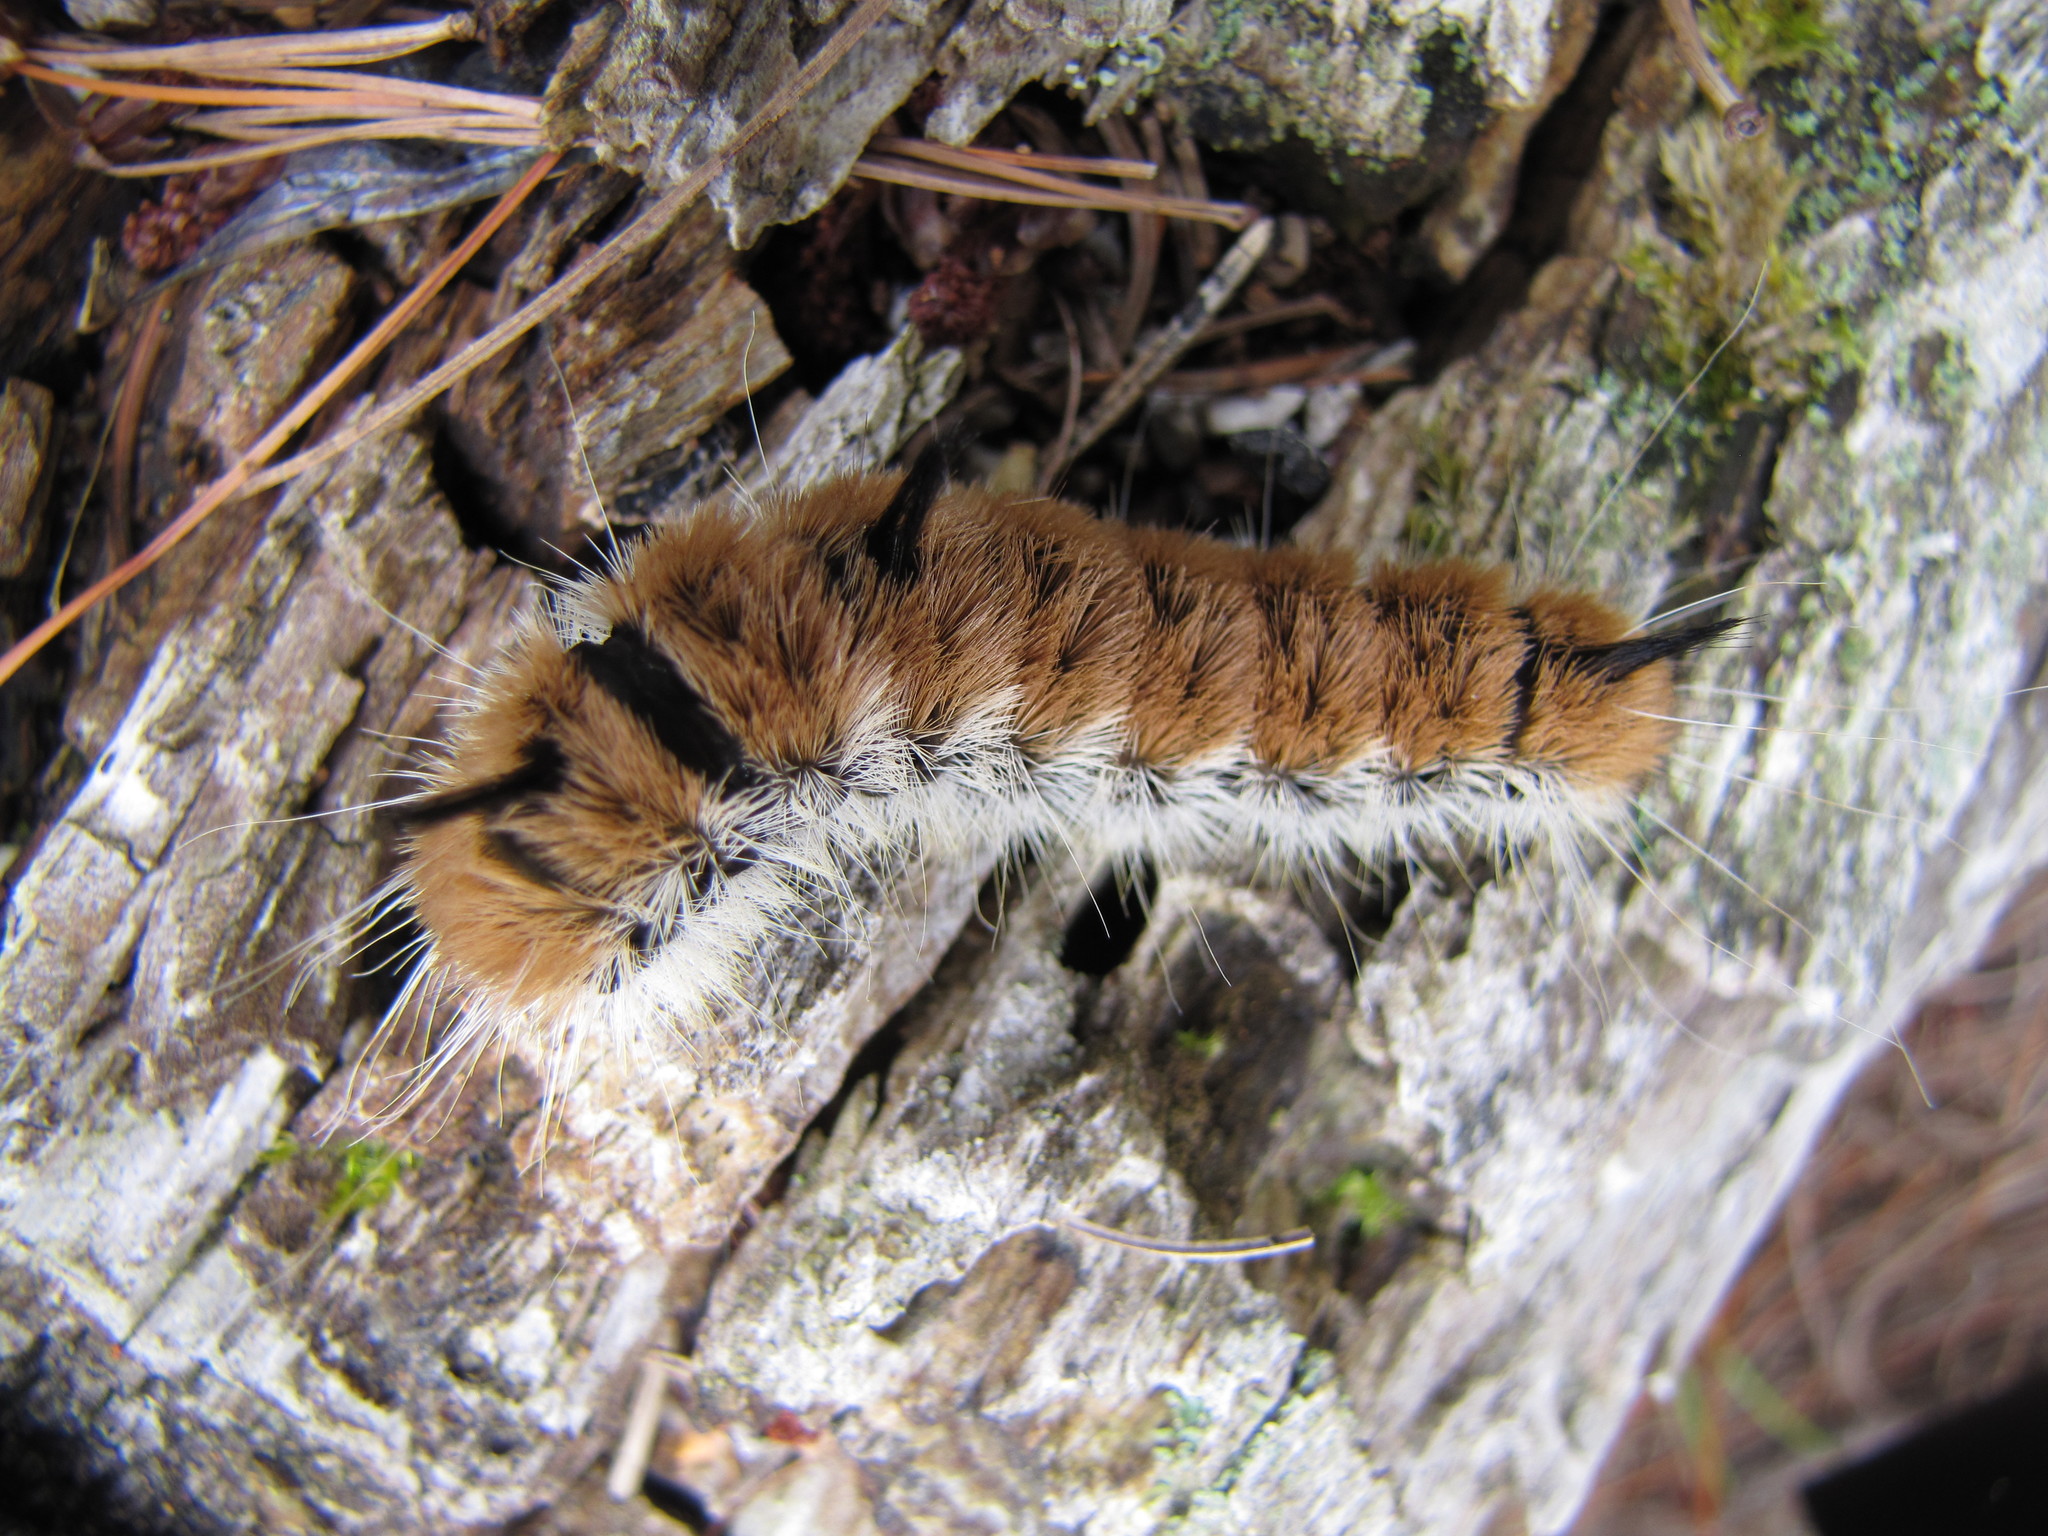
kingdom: Animalia
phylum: Arthropoda
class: Insecta
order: Lepidoptera
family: Noctuidae
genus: Acronicta
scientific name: Acronicta insita
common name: Large gray dagger
